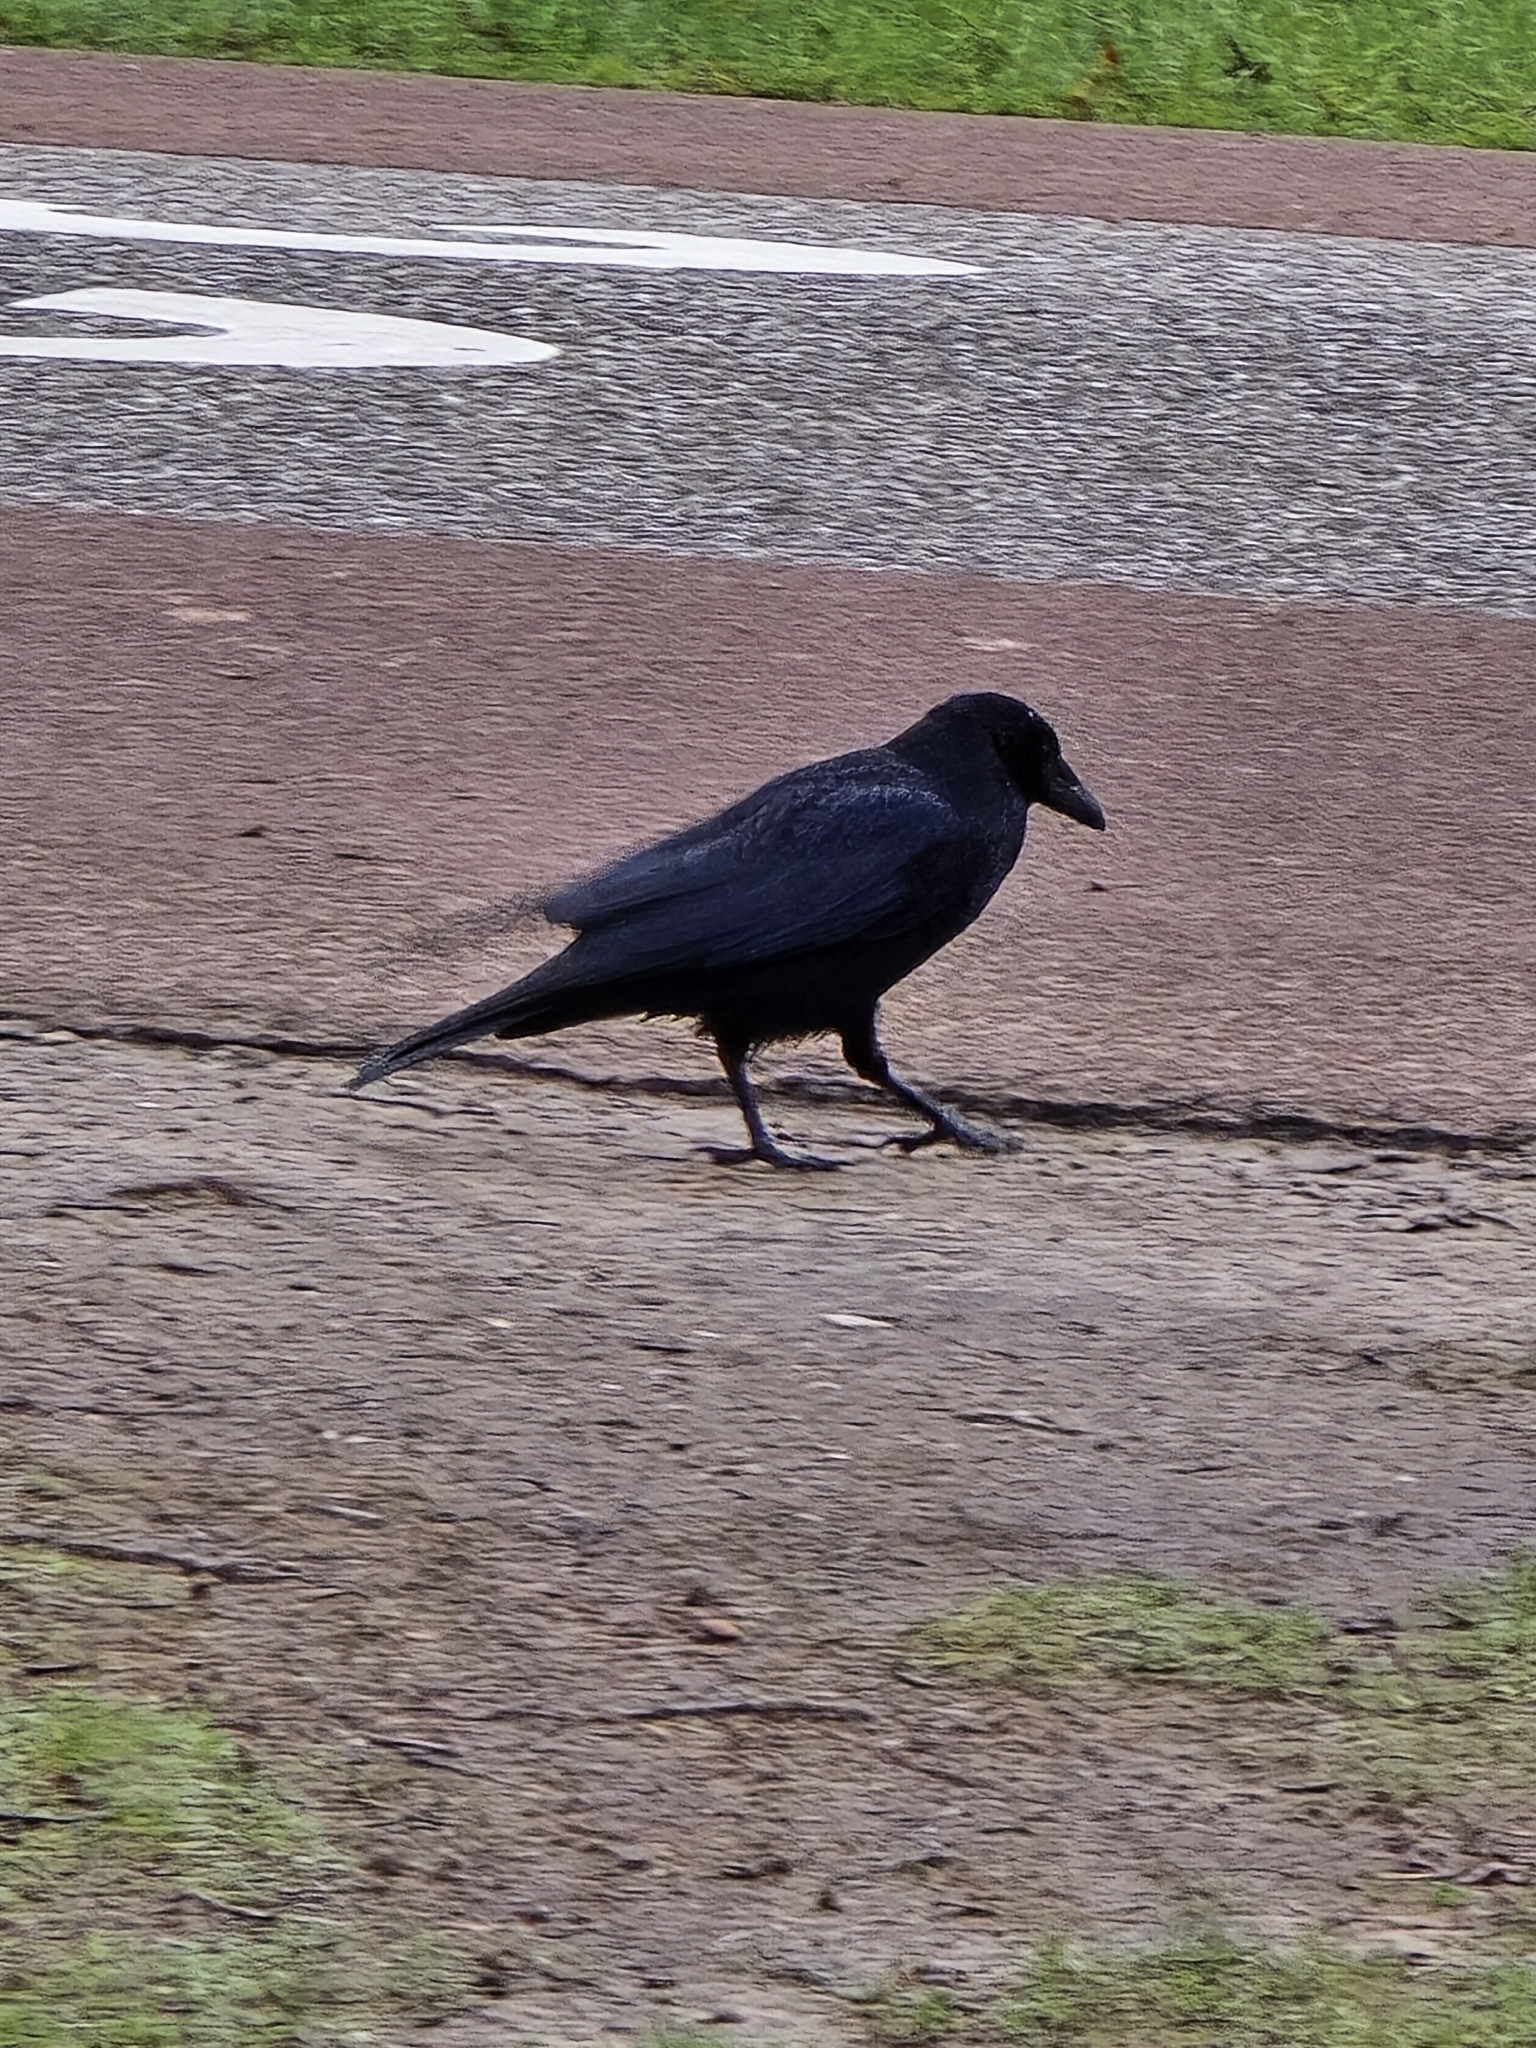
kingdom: Animalia
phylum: Chordata
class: Aves
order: Passeriformes
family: Corvidae
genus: Corvus
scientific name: Corvus corone
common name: Carrion crow
